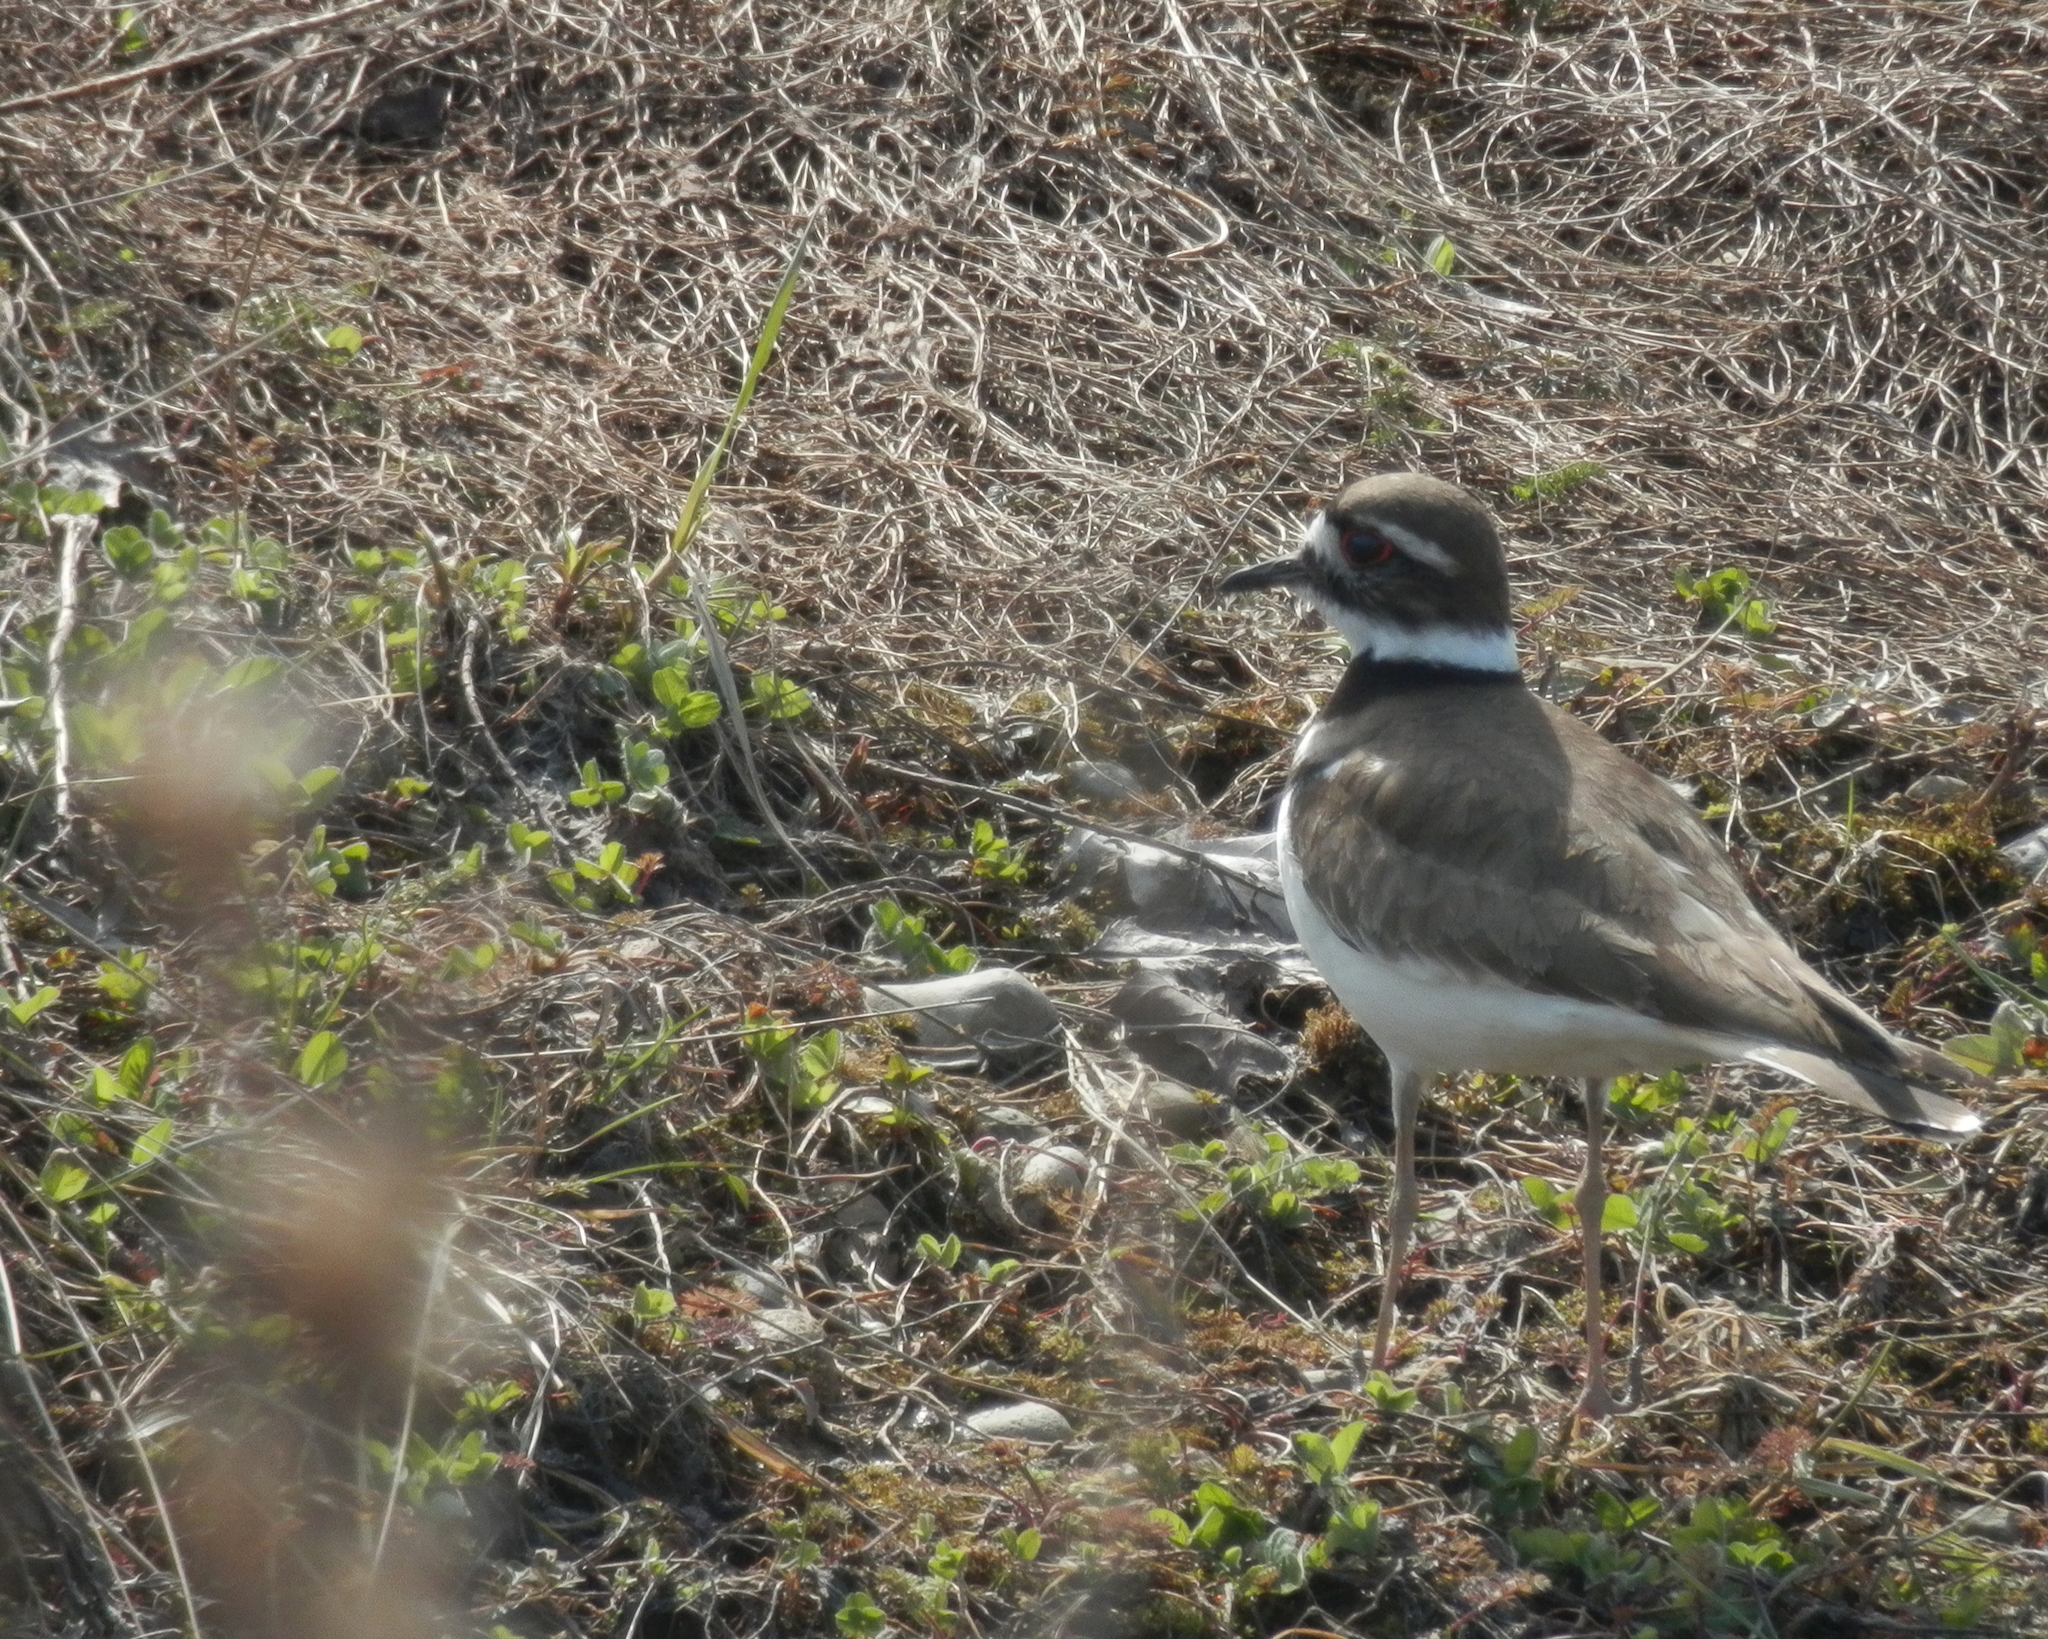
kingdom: Animalia
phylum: Chordata
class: Aves
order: Charadriiformes
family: Charadriidae
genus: Charadrius
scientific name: Charadrius vociferus
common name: Killdeer
